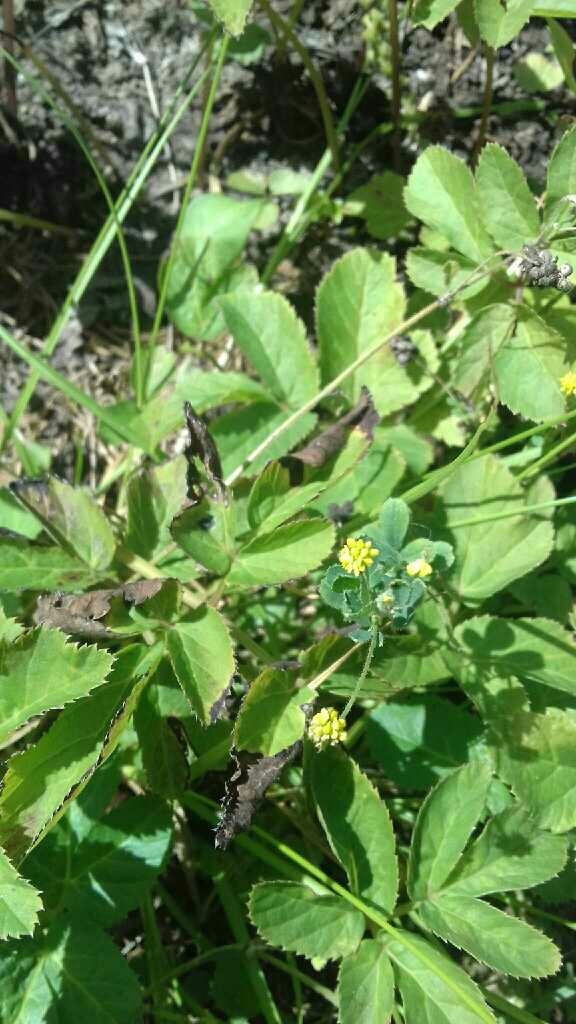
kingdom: Plantae
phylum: Tracheophyta
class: Magnoliopsida
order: Fabales
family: Fabaceae
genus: Medicago
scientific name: Medicago lupulina
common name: Black medick
